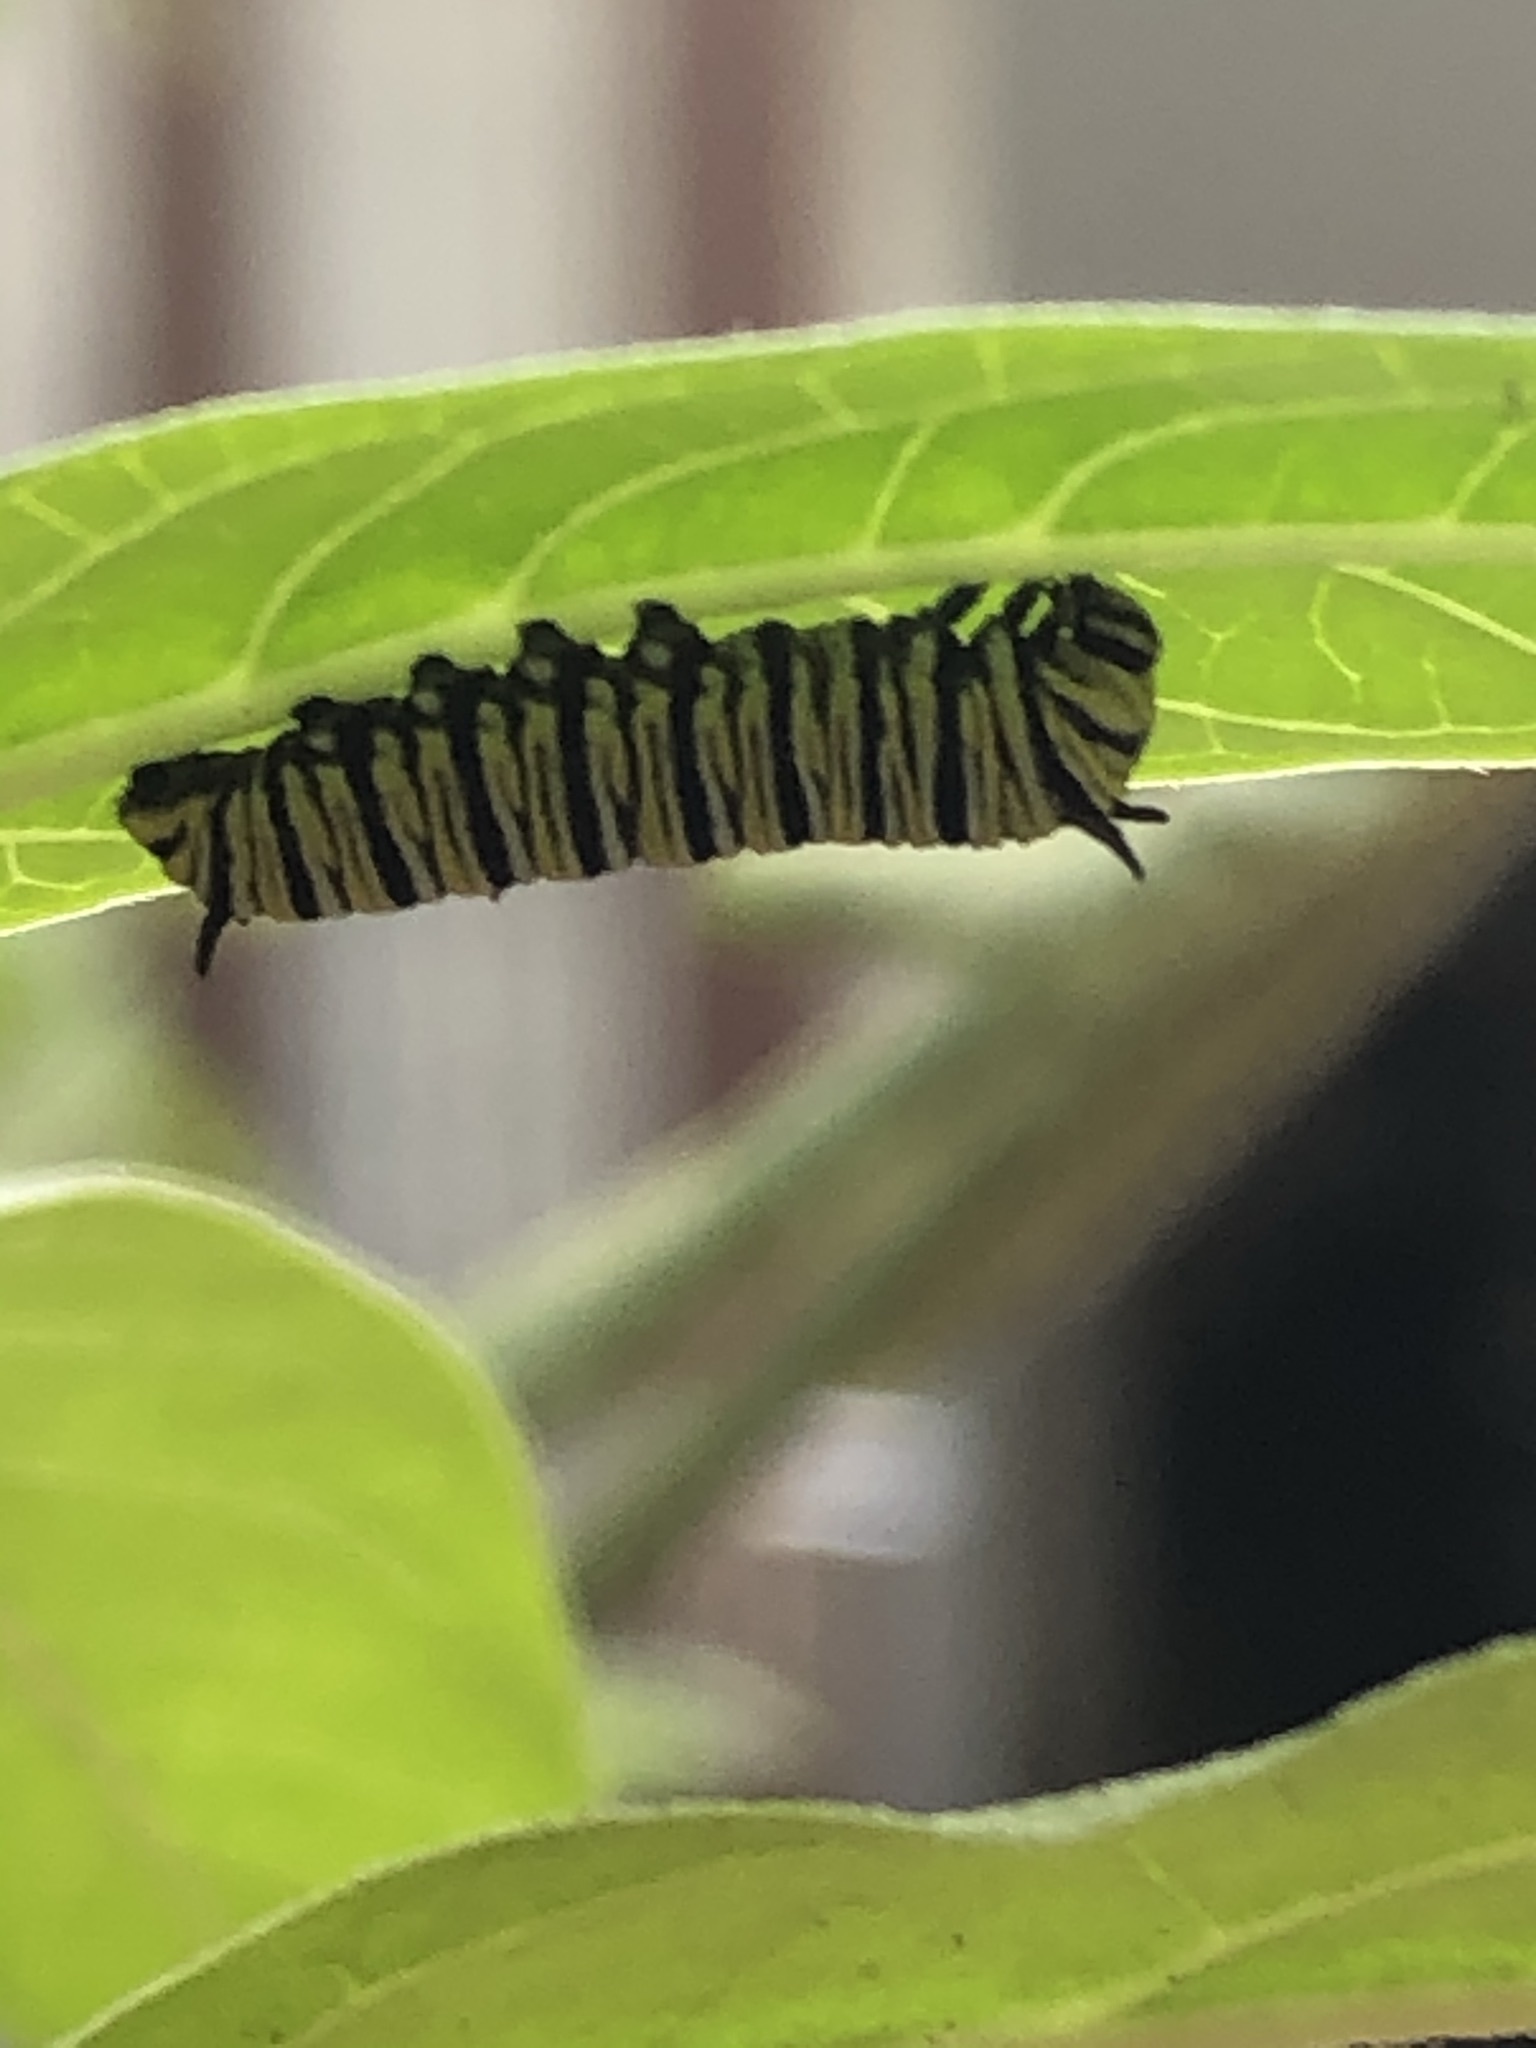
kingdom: Animalia
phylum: Arthropoda
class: Insecta
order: Lepidoptera
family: Nymphalidae
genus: Danaus
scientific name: Danaus plexippus
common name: Monarch
